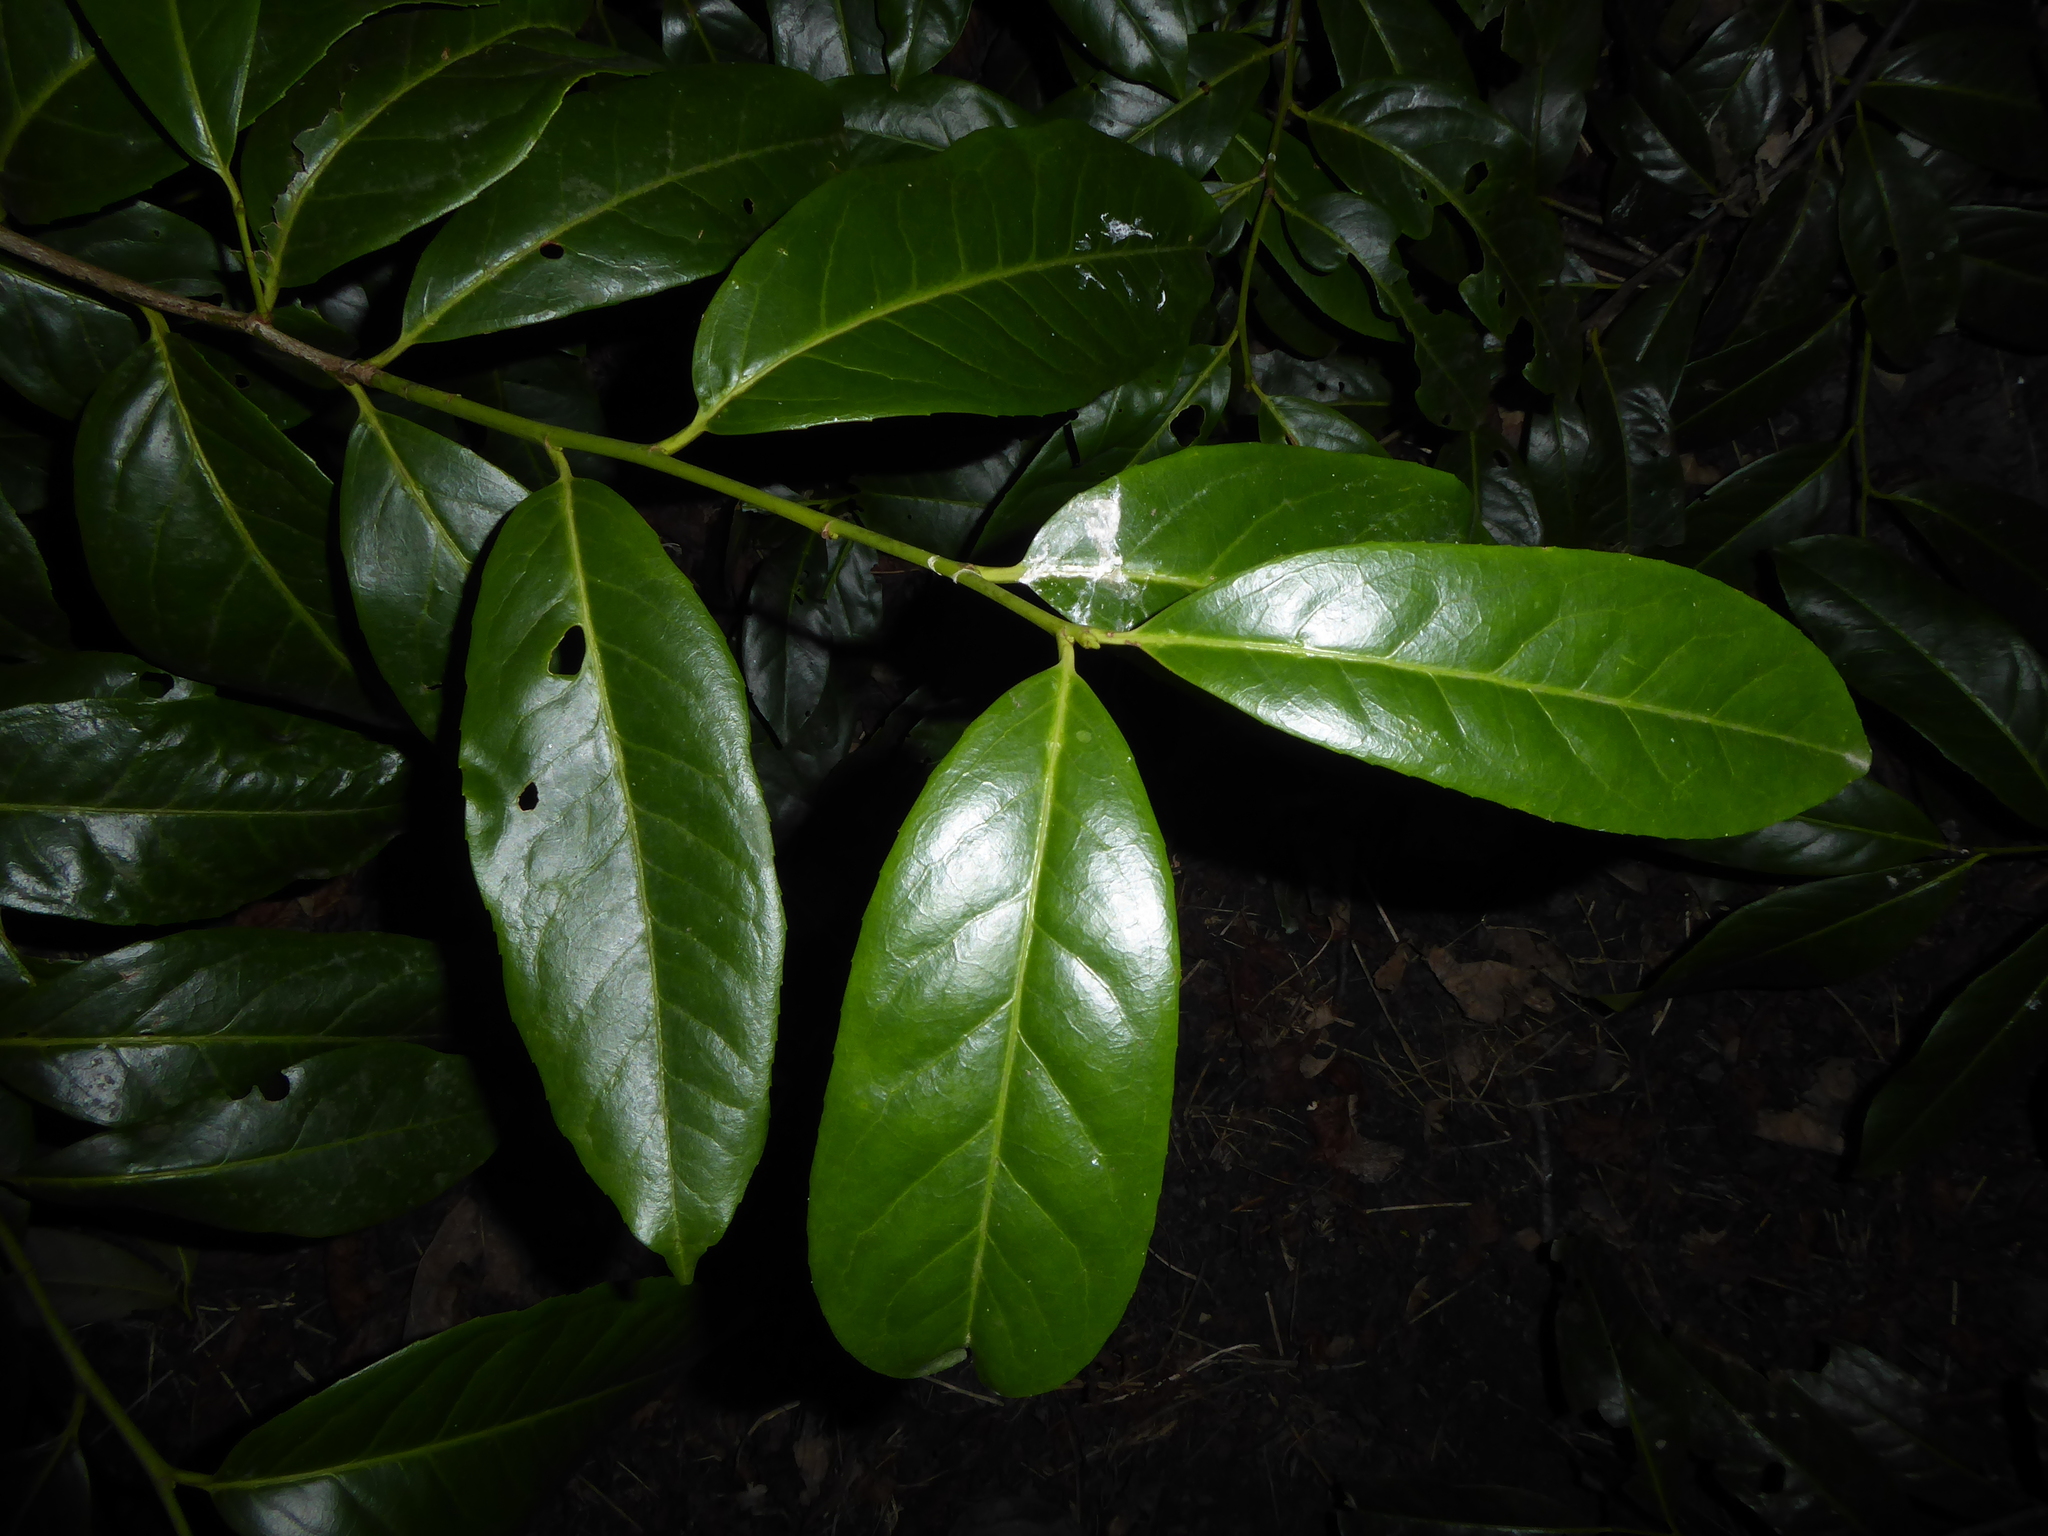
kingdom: Plantae
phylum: Tracheophyta
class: Magnoliopsida
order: Rosales
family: Rosaceae
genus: Prunus
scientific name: Prunus laurocerasus
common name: Cherry laurel
